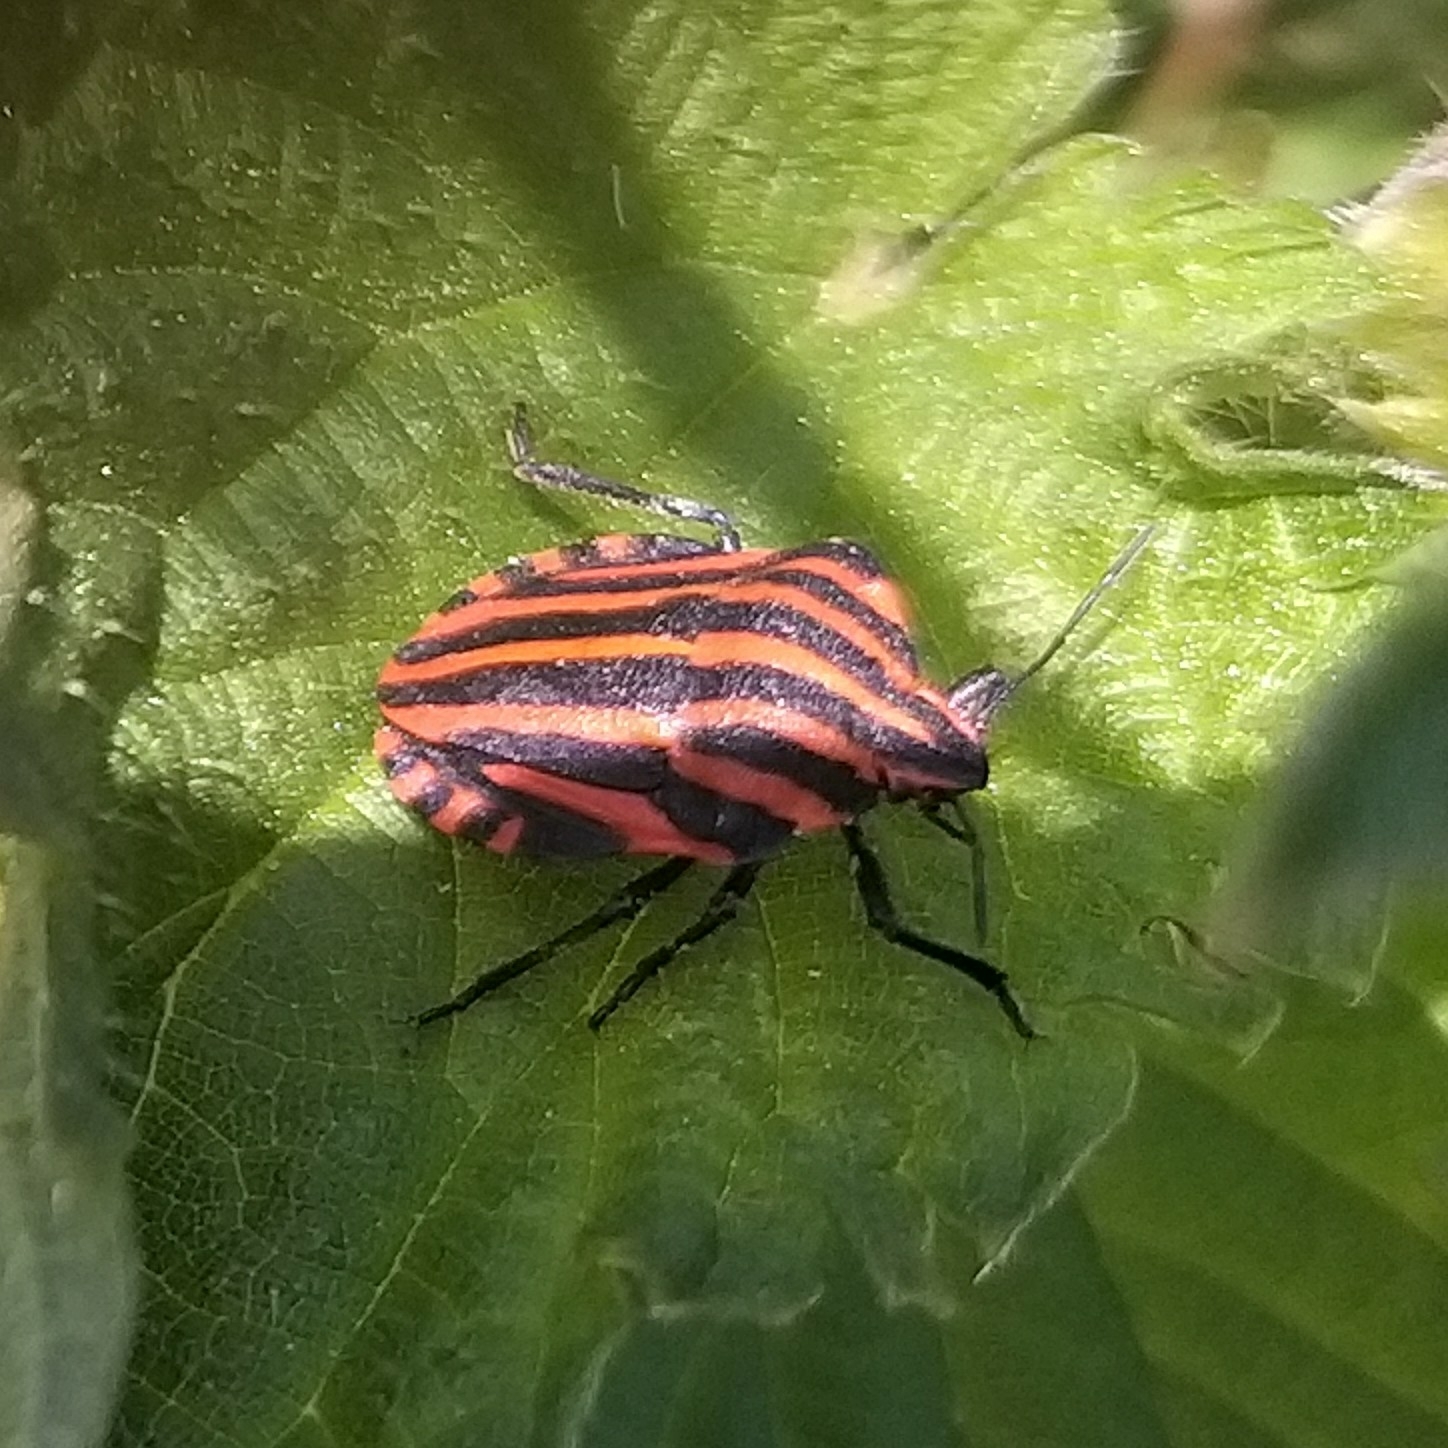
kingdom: Animalia
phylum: Arthropoda
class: Insecta
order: Hemiptera
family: Pentatomidae
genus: Graphosoma
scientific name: Graphosoma italicum
